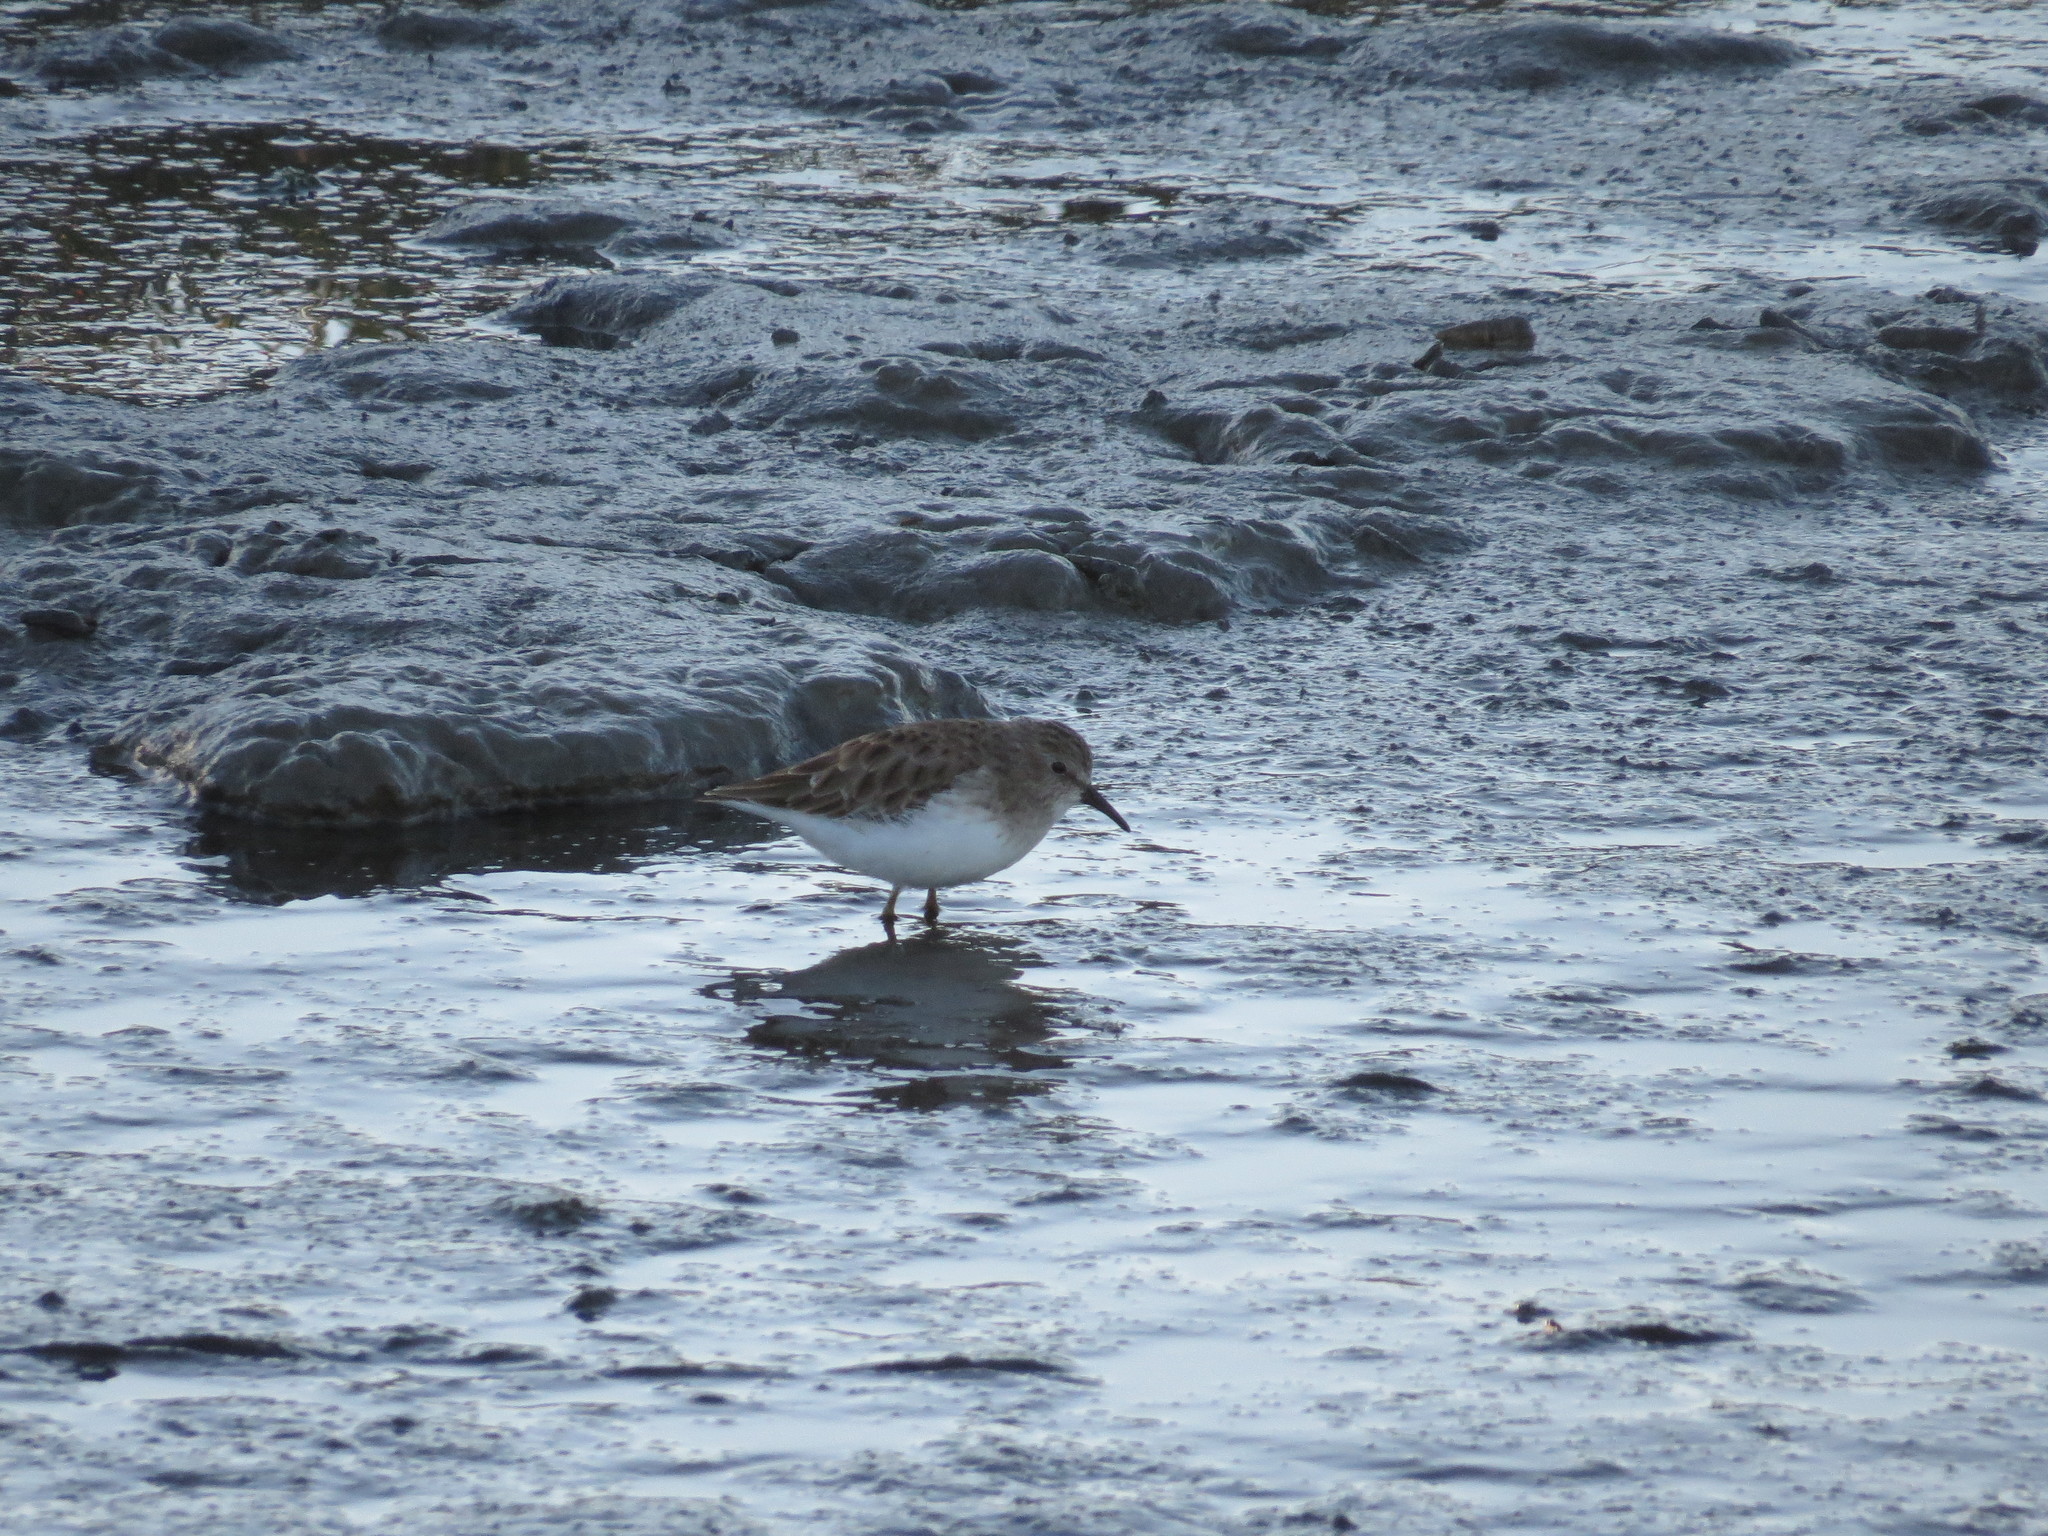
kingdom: Animalia
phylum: Chordata
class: Aves
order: Charadriiformes
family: Scolopacidae
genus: Calidris
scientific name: Calidris minutilla
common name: Least sandpiper
